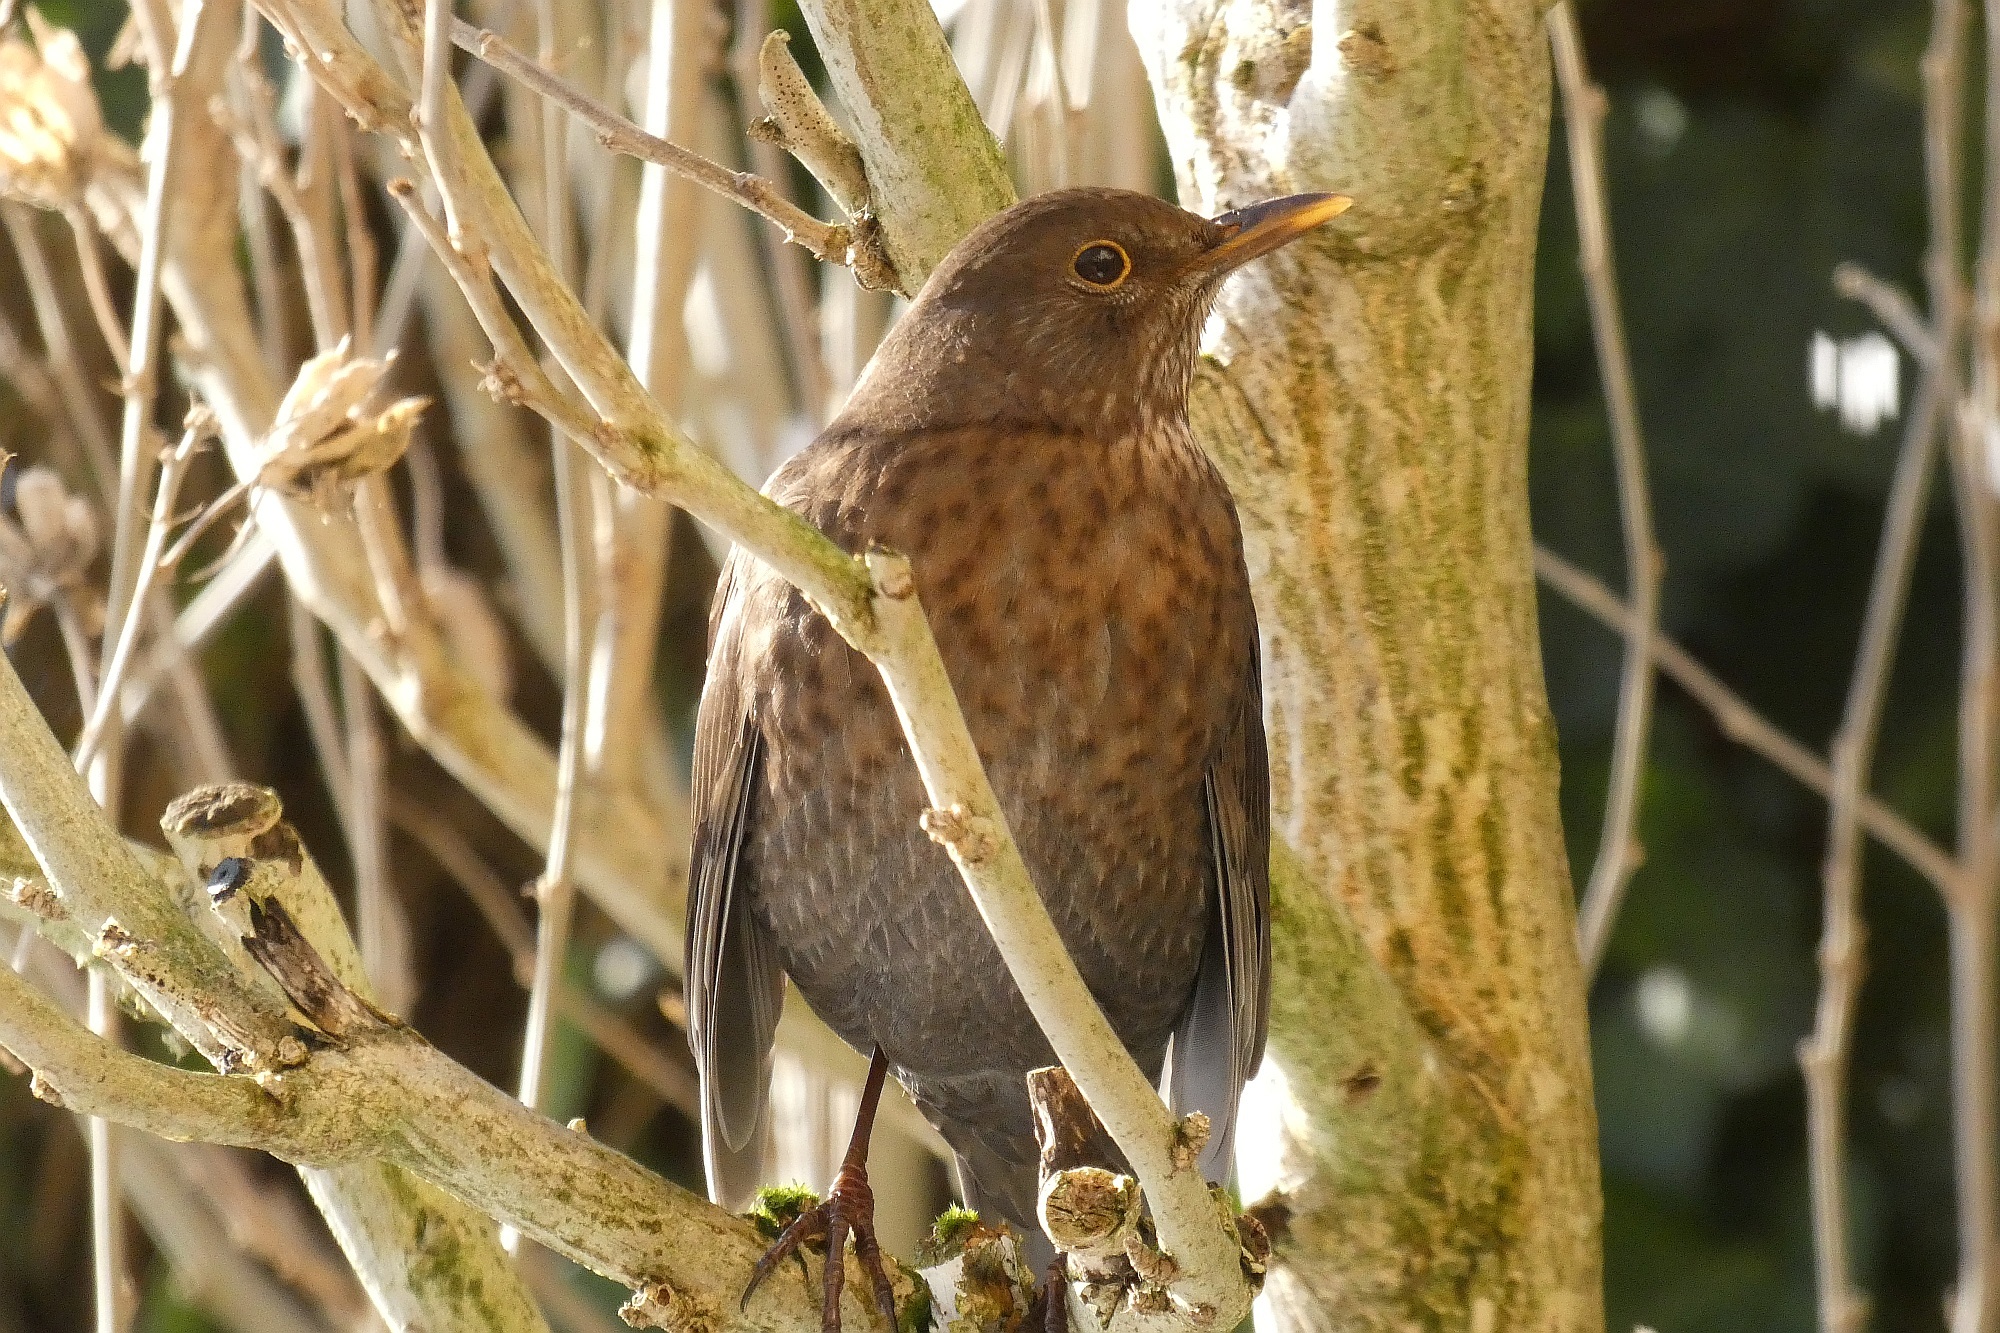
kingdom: Animalia
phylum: Chordata
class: Aves
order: Passeriformes
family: Turdidae
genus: Turdus
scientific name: Turdus merula
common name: Common blackbird
